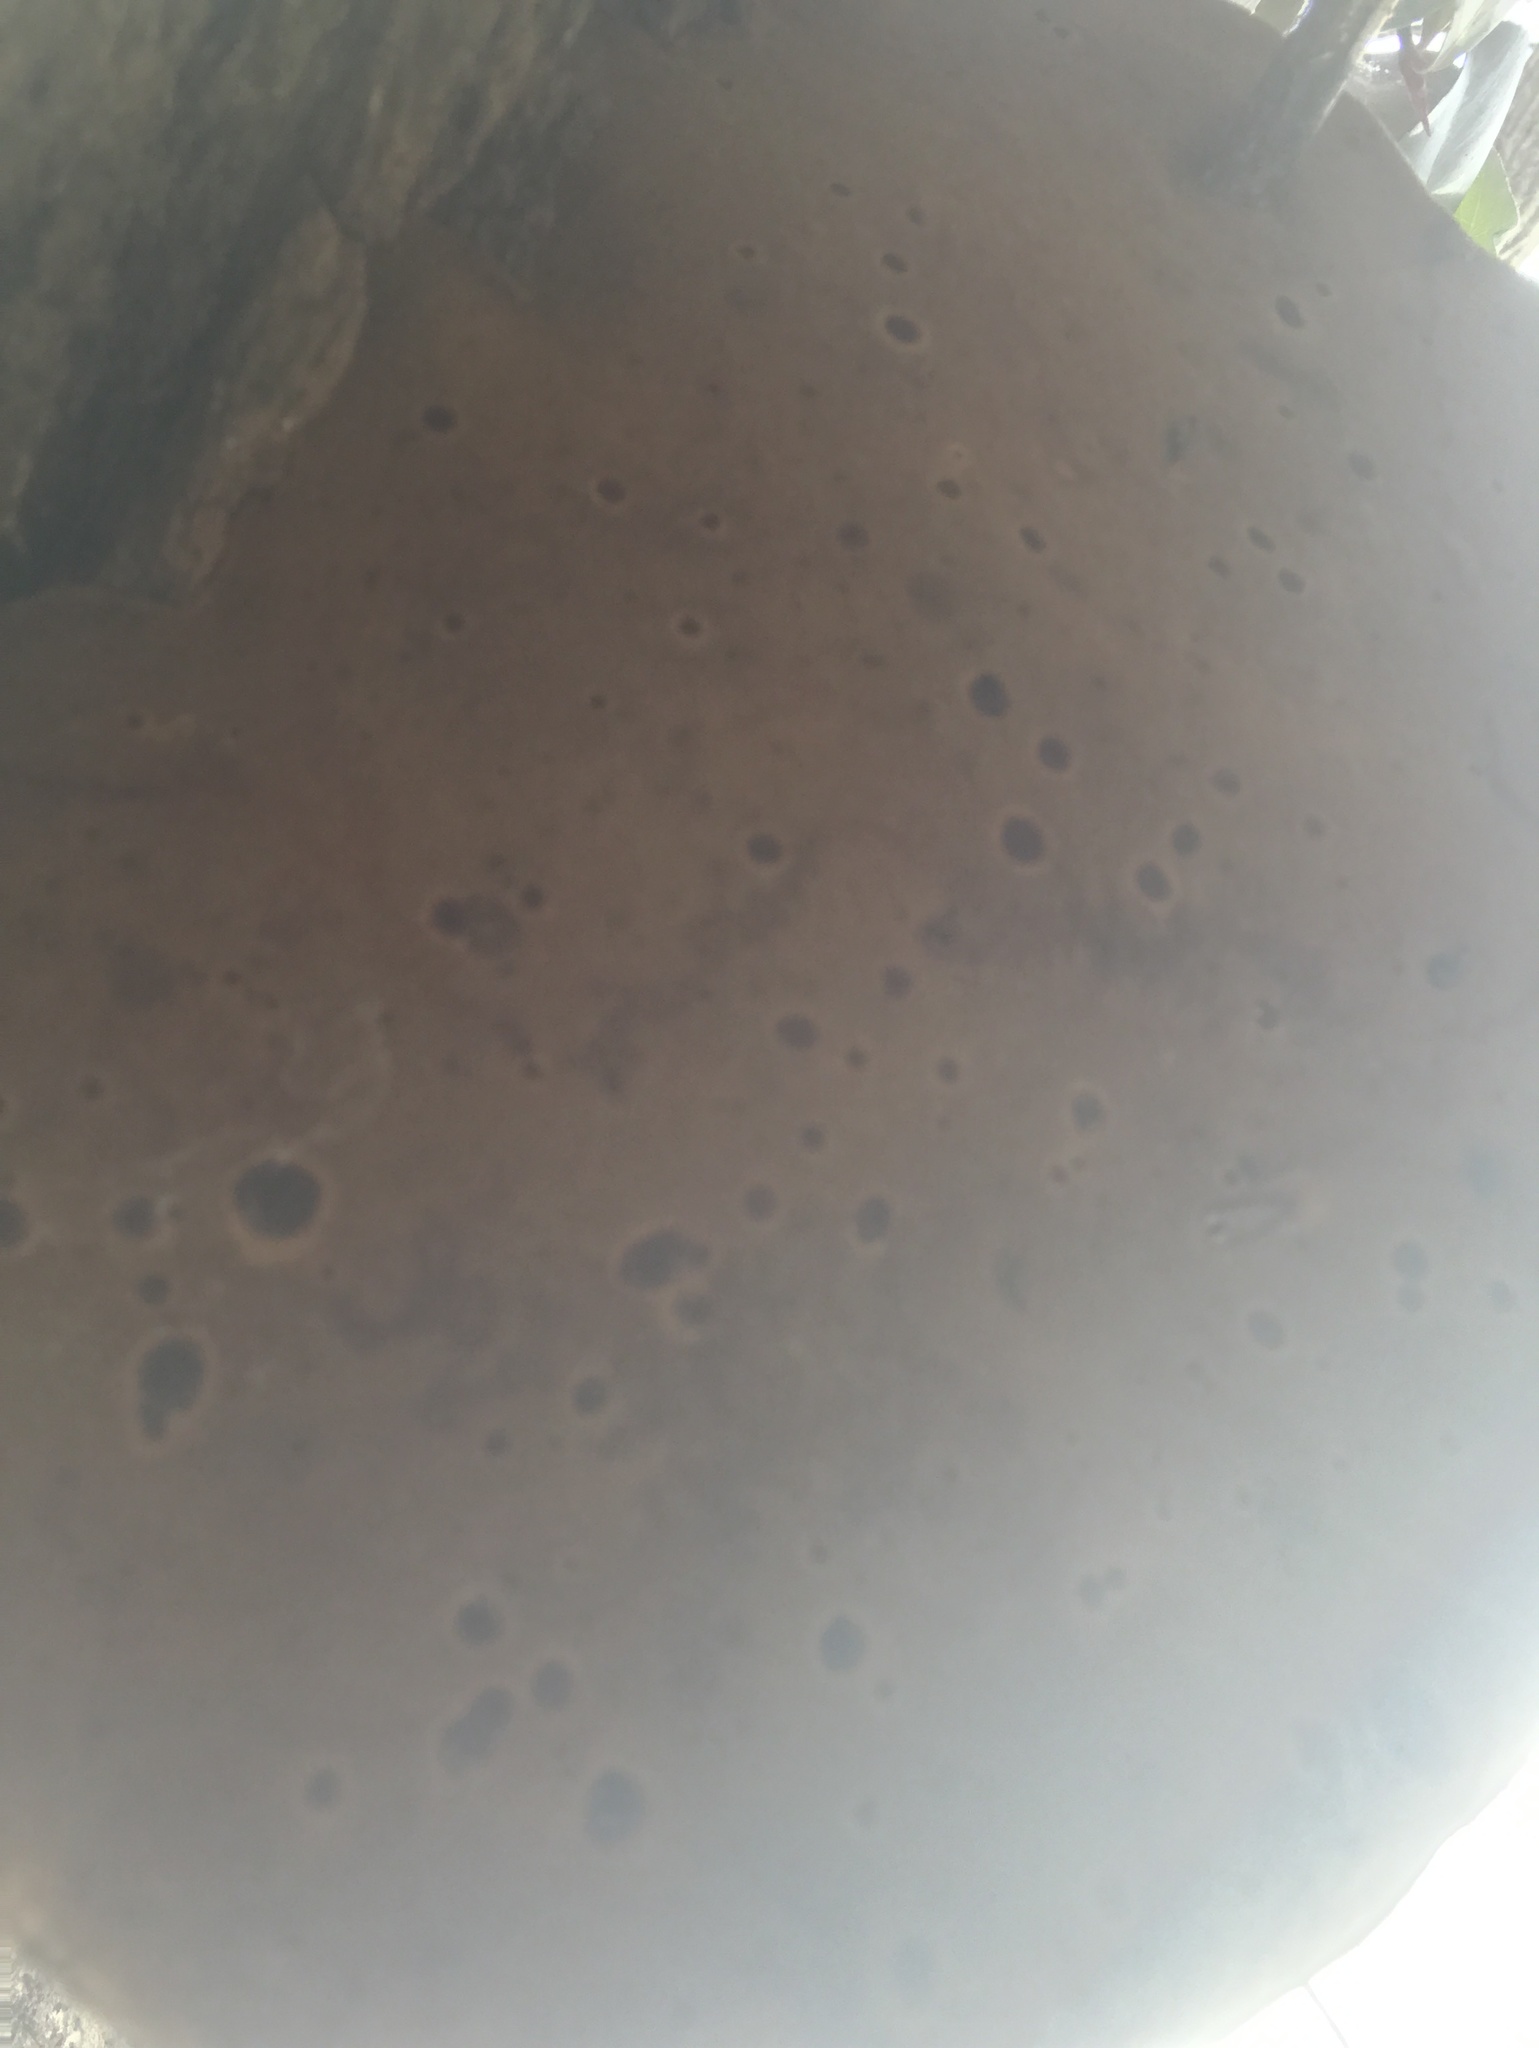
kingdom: Fungi
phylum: Basidiomycota
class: Agaricomycetes
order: Hymenochaetales
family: Hymenochaetaceae
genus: Phellinus
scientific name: Phellinus robiniae
